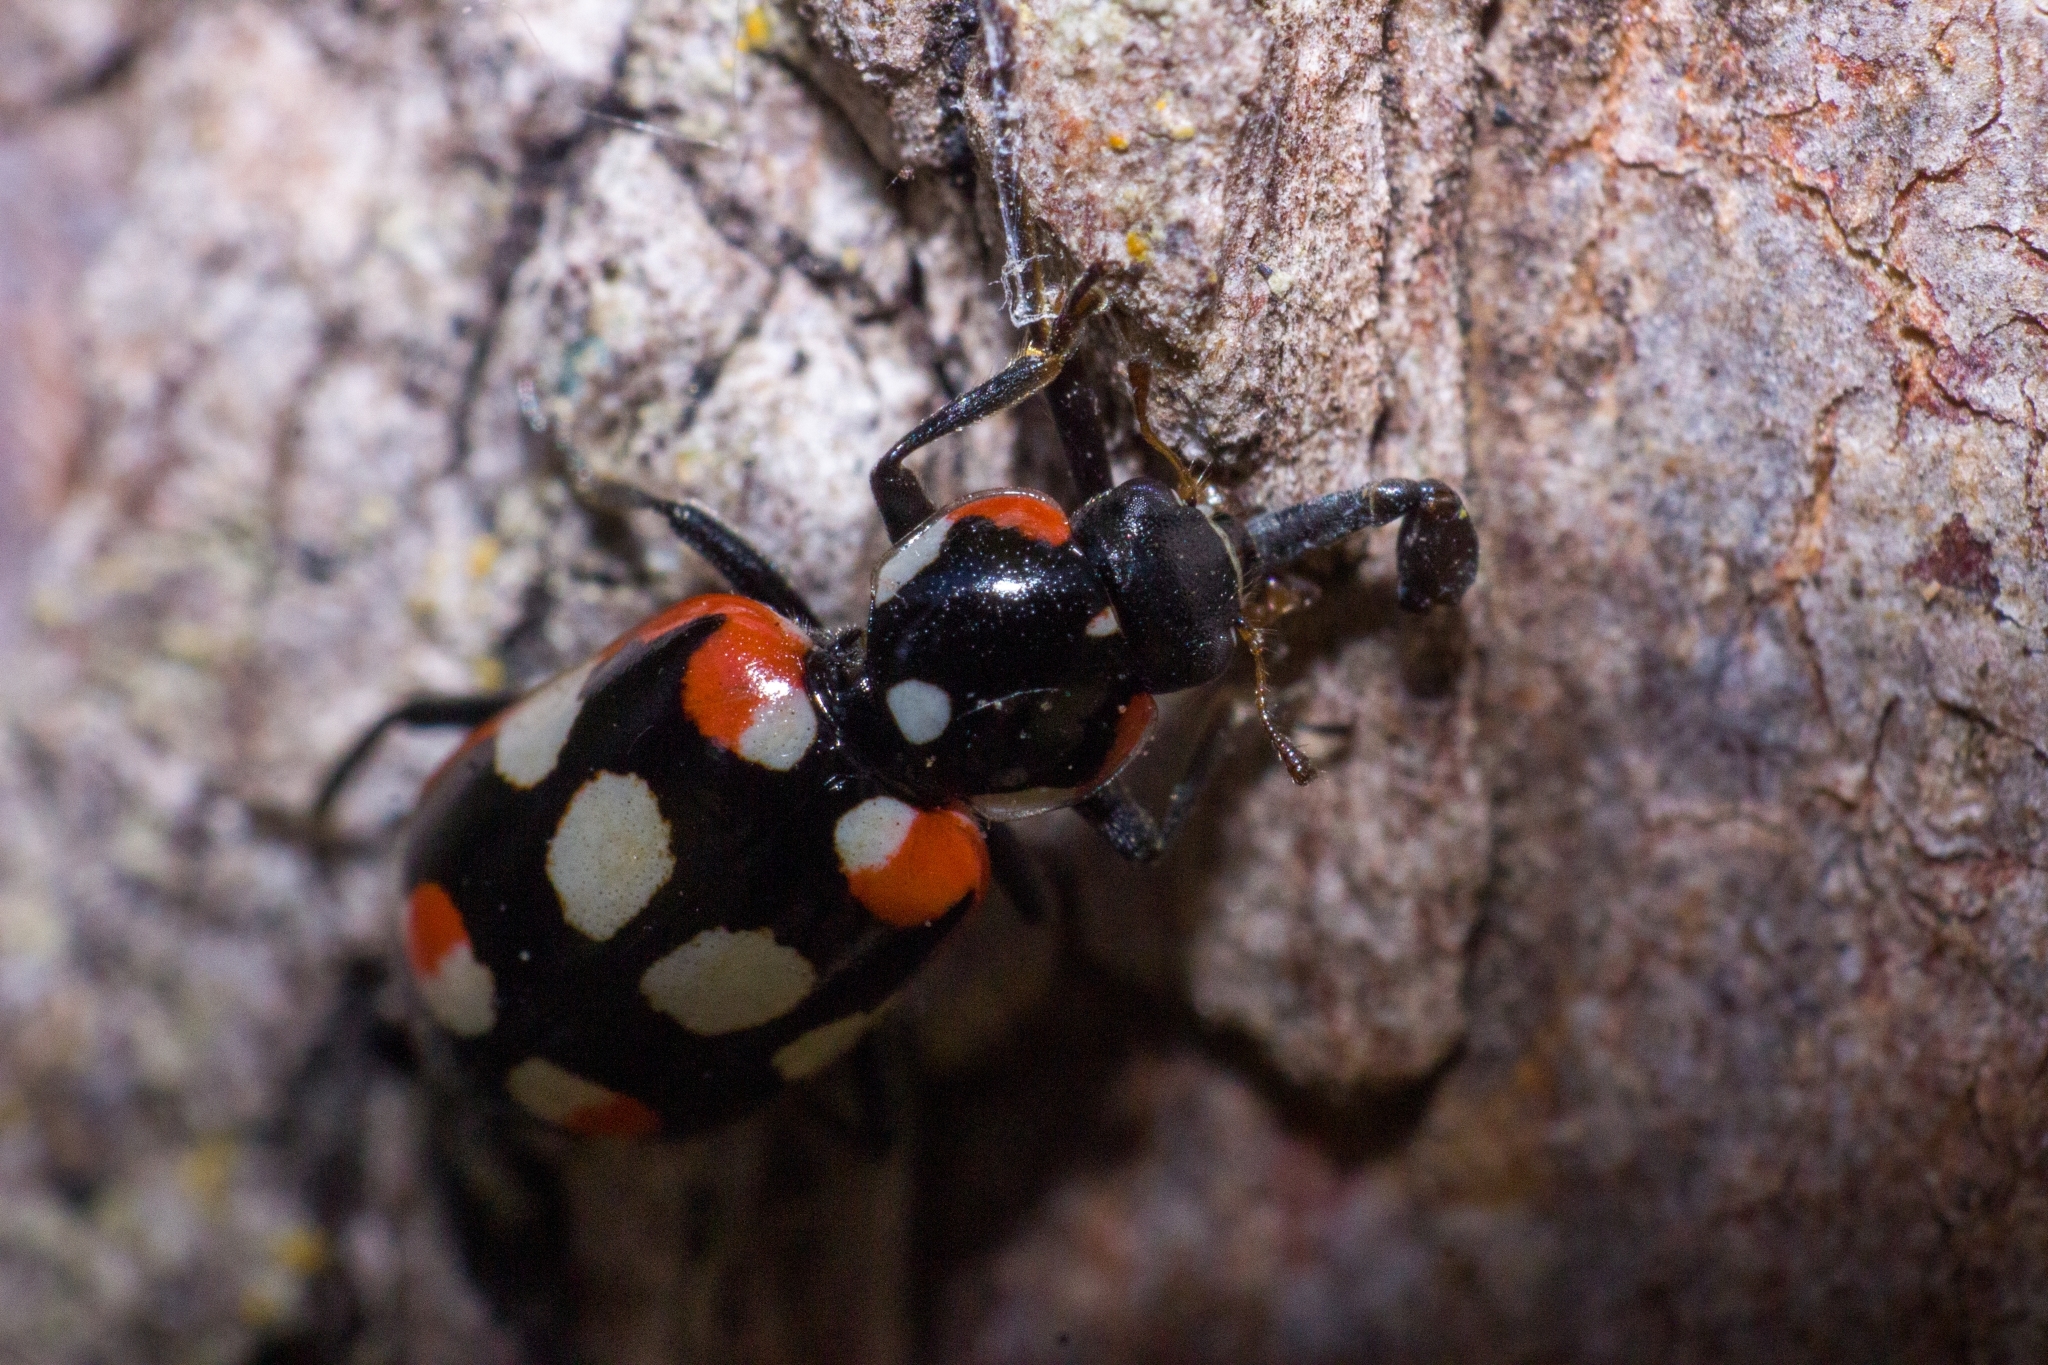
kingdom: Animalia
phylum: Arthropoda
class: Insecta
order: Coleoptera
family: Coccinellidae
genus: Eriopis
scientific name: Eriopis connexa
